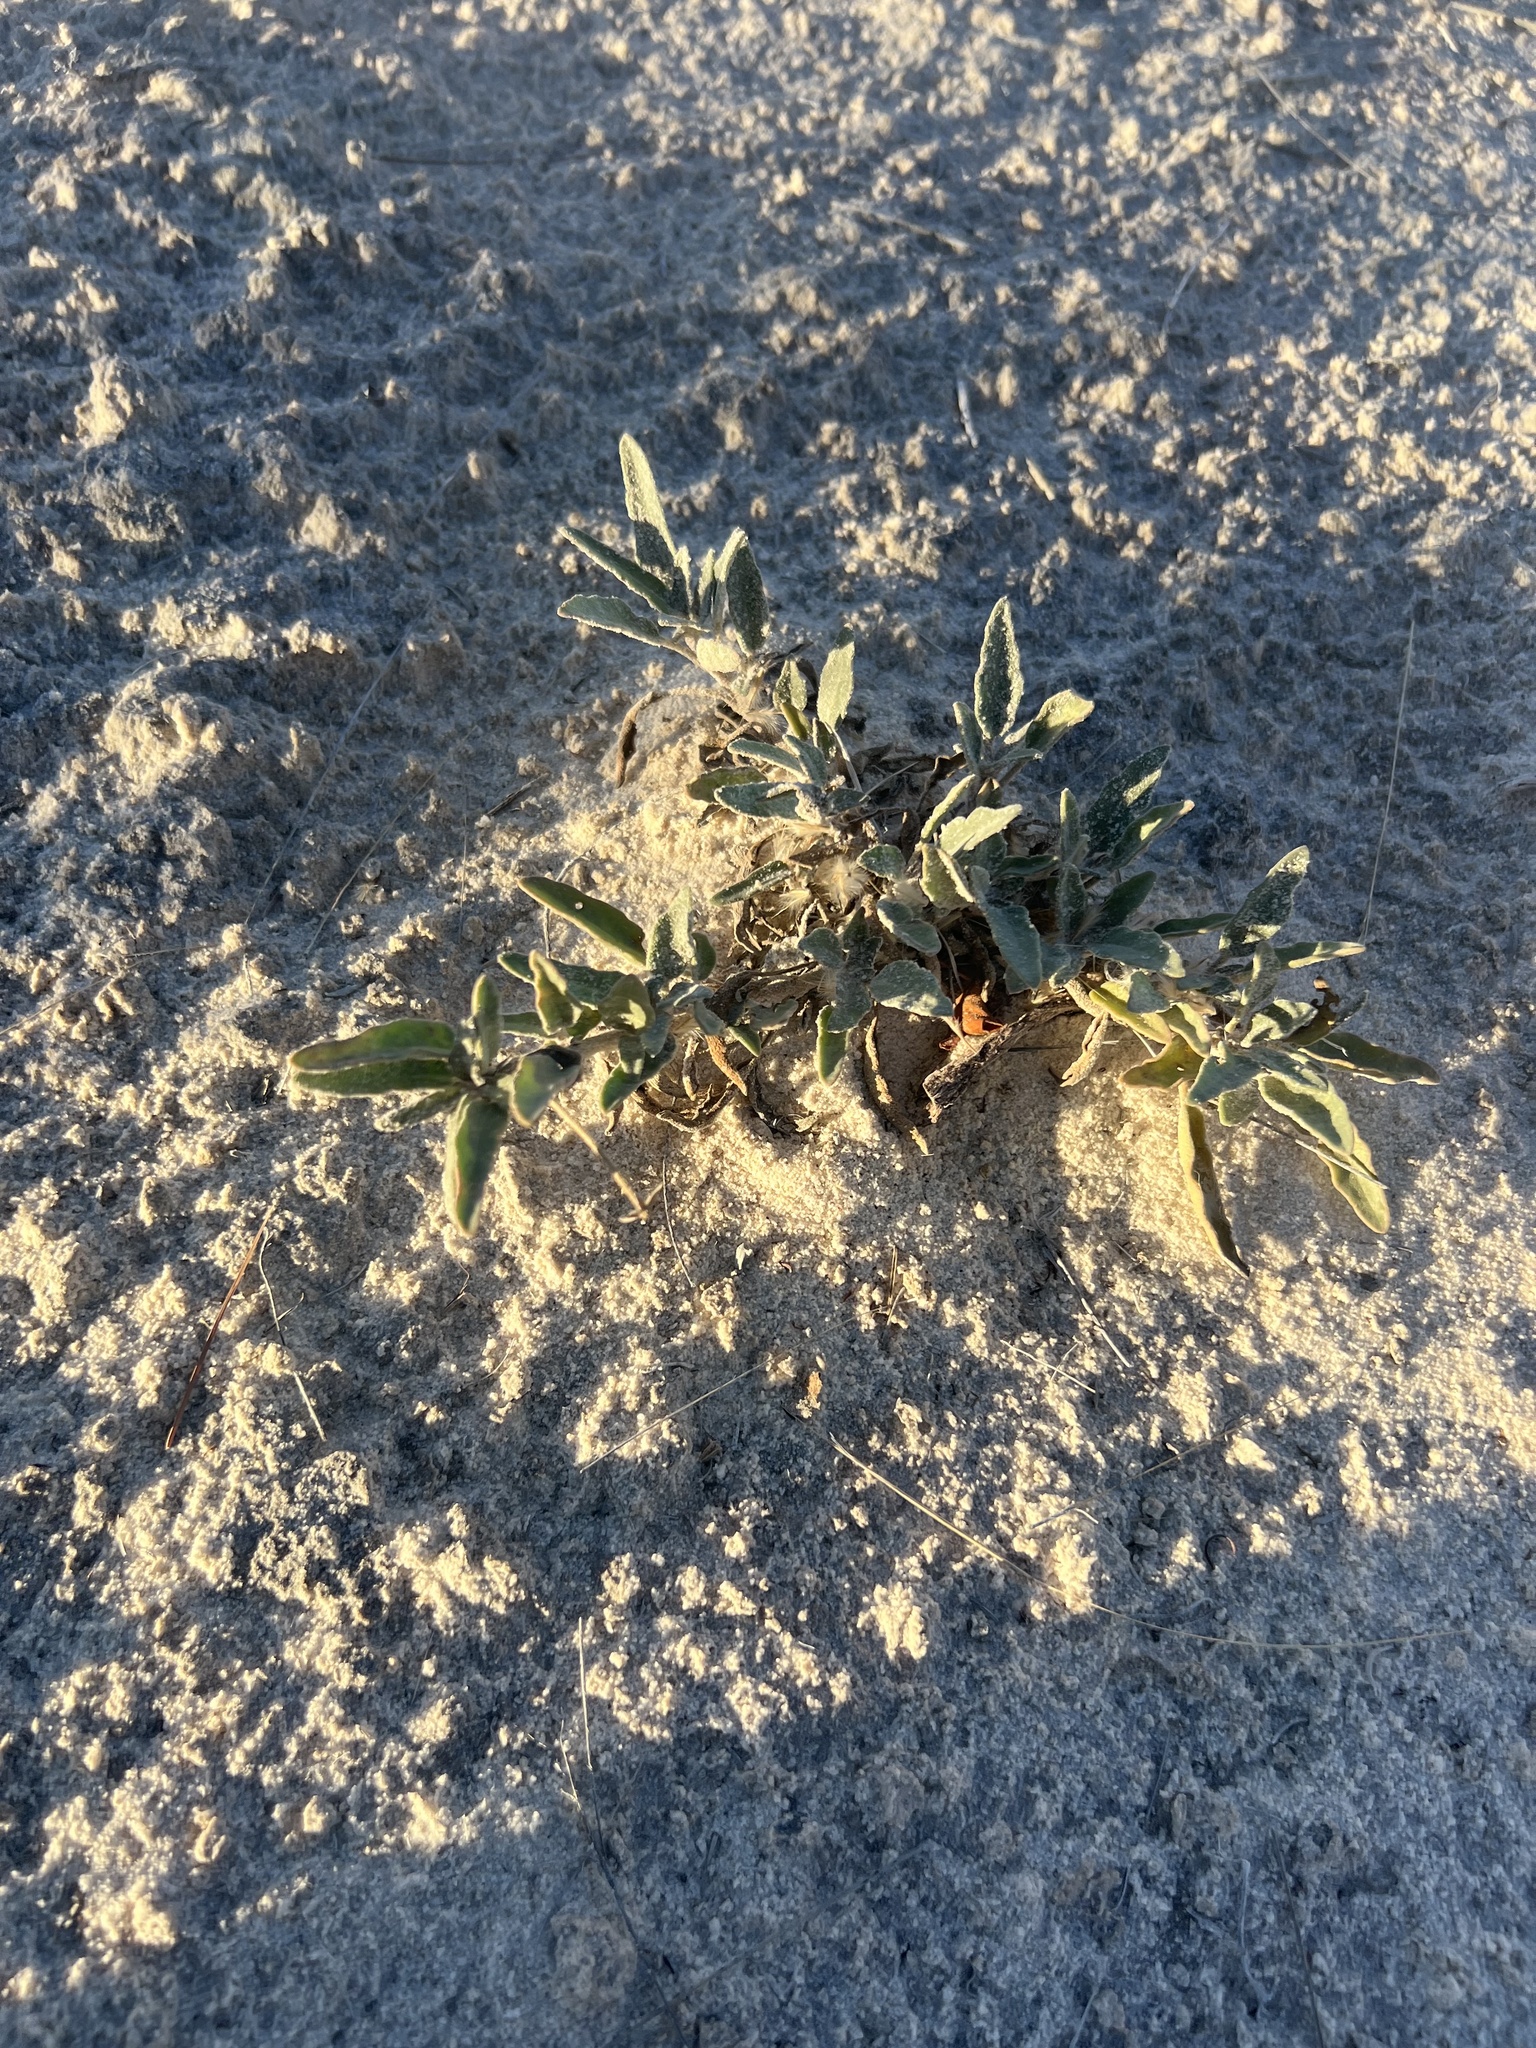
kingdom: Plantae
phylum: Tracheophyta
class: Magnoliopsida
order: Caryophyllales
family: Nyctaginaceae
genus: Abronia
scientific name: Abronia angustifolia
